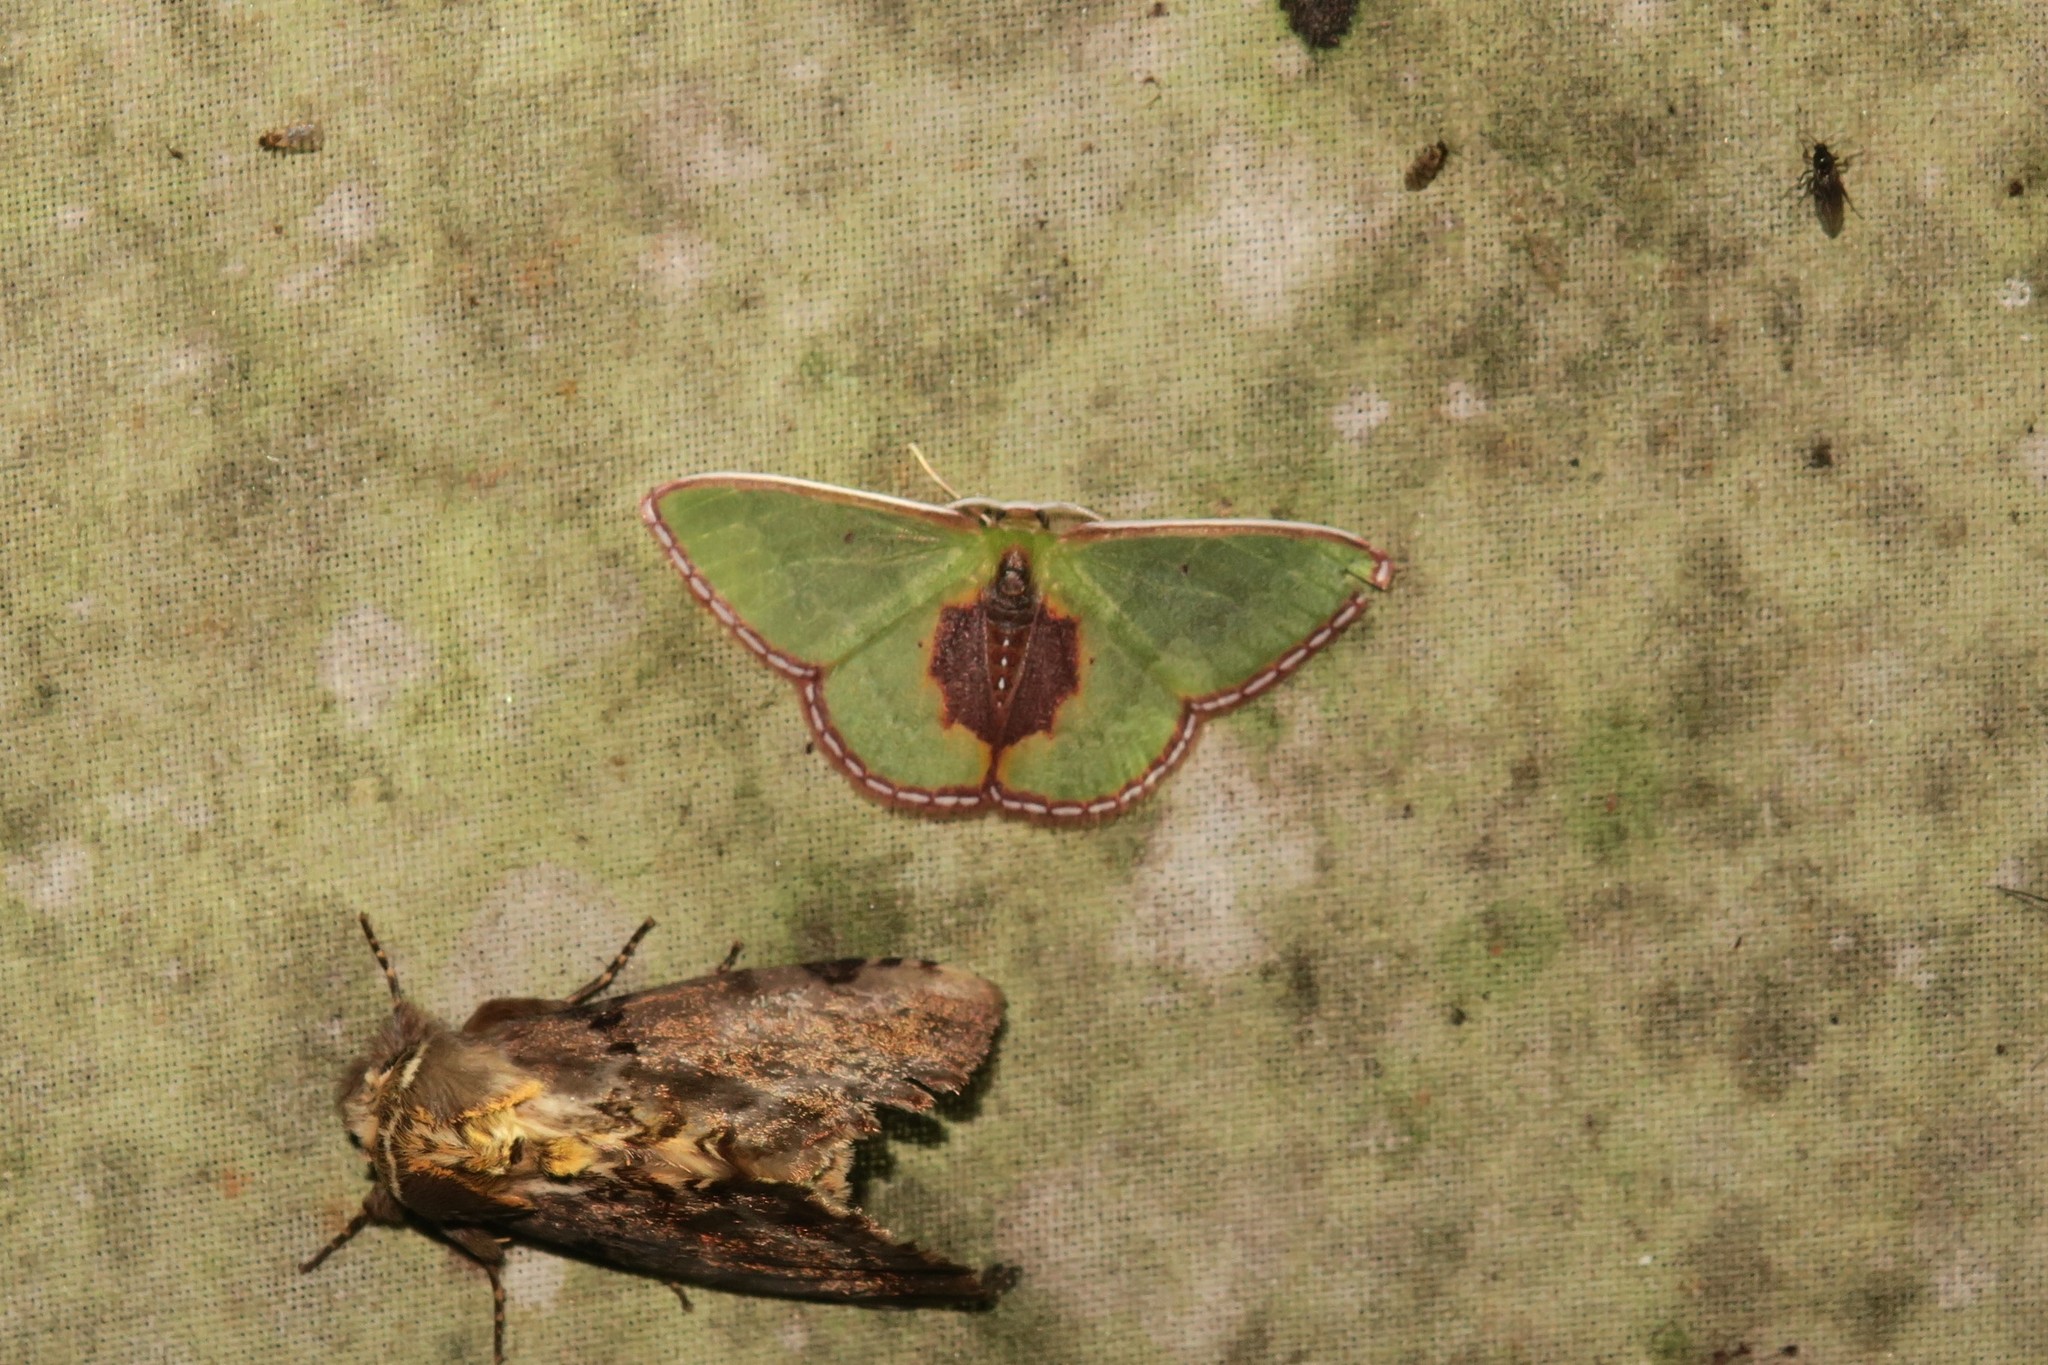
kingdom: Animalia
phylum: Arthropoda
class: Insecta
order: Lepidoptera
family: Geometridae
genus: Synchlora
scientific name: Synchlora astraeoides
